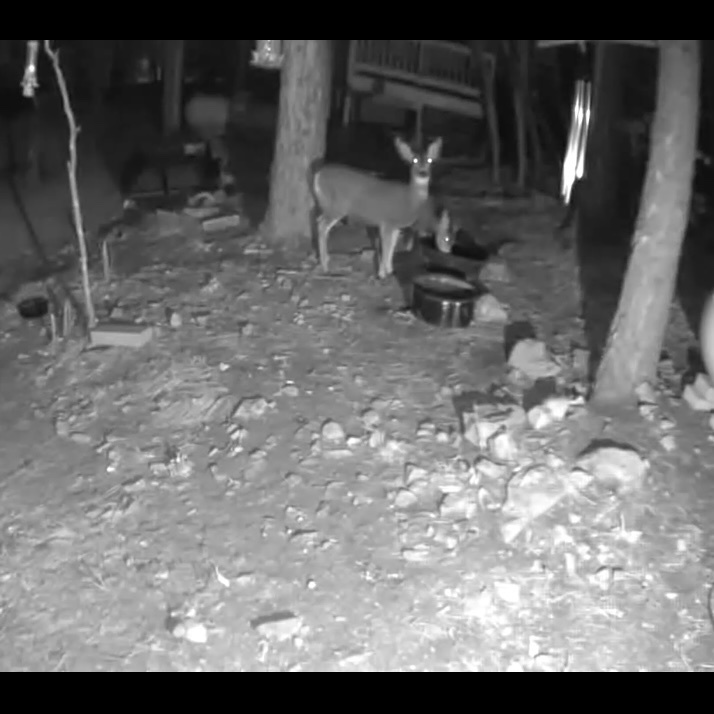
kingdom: Animalia
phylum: Chordata
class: Mammalia
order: Artiodactyla
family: Cervidae
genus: Odocoileus
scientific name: Odocoileus hemionus
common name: Mule deer
